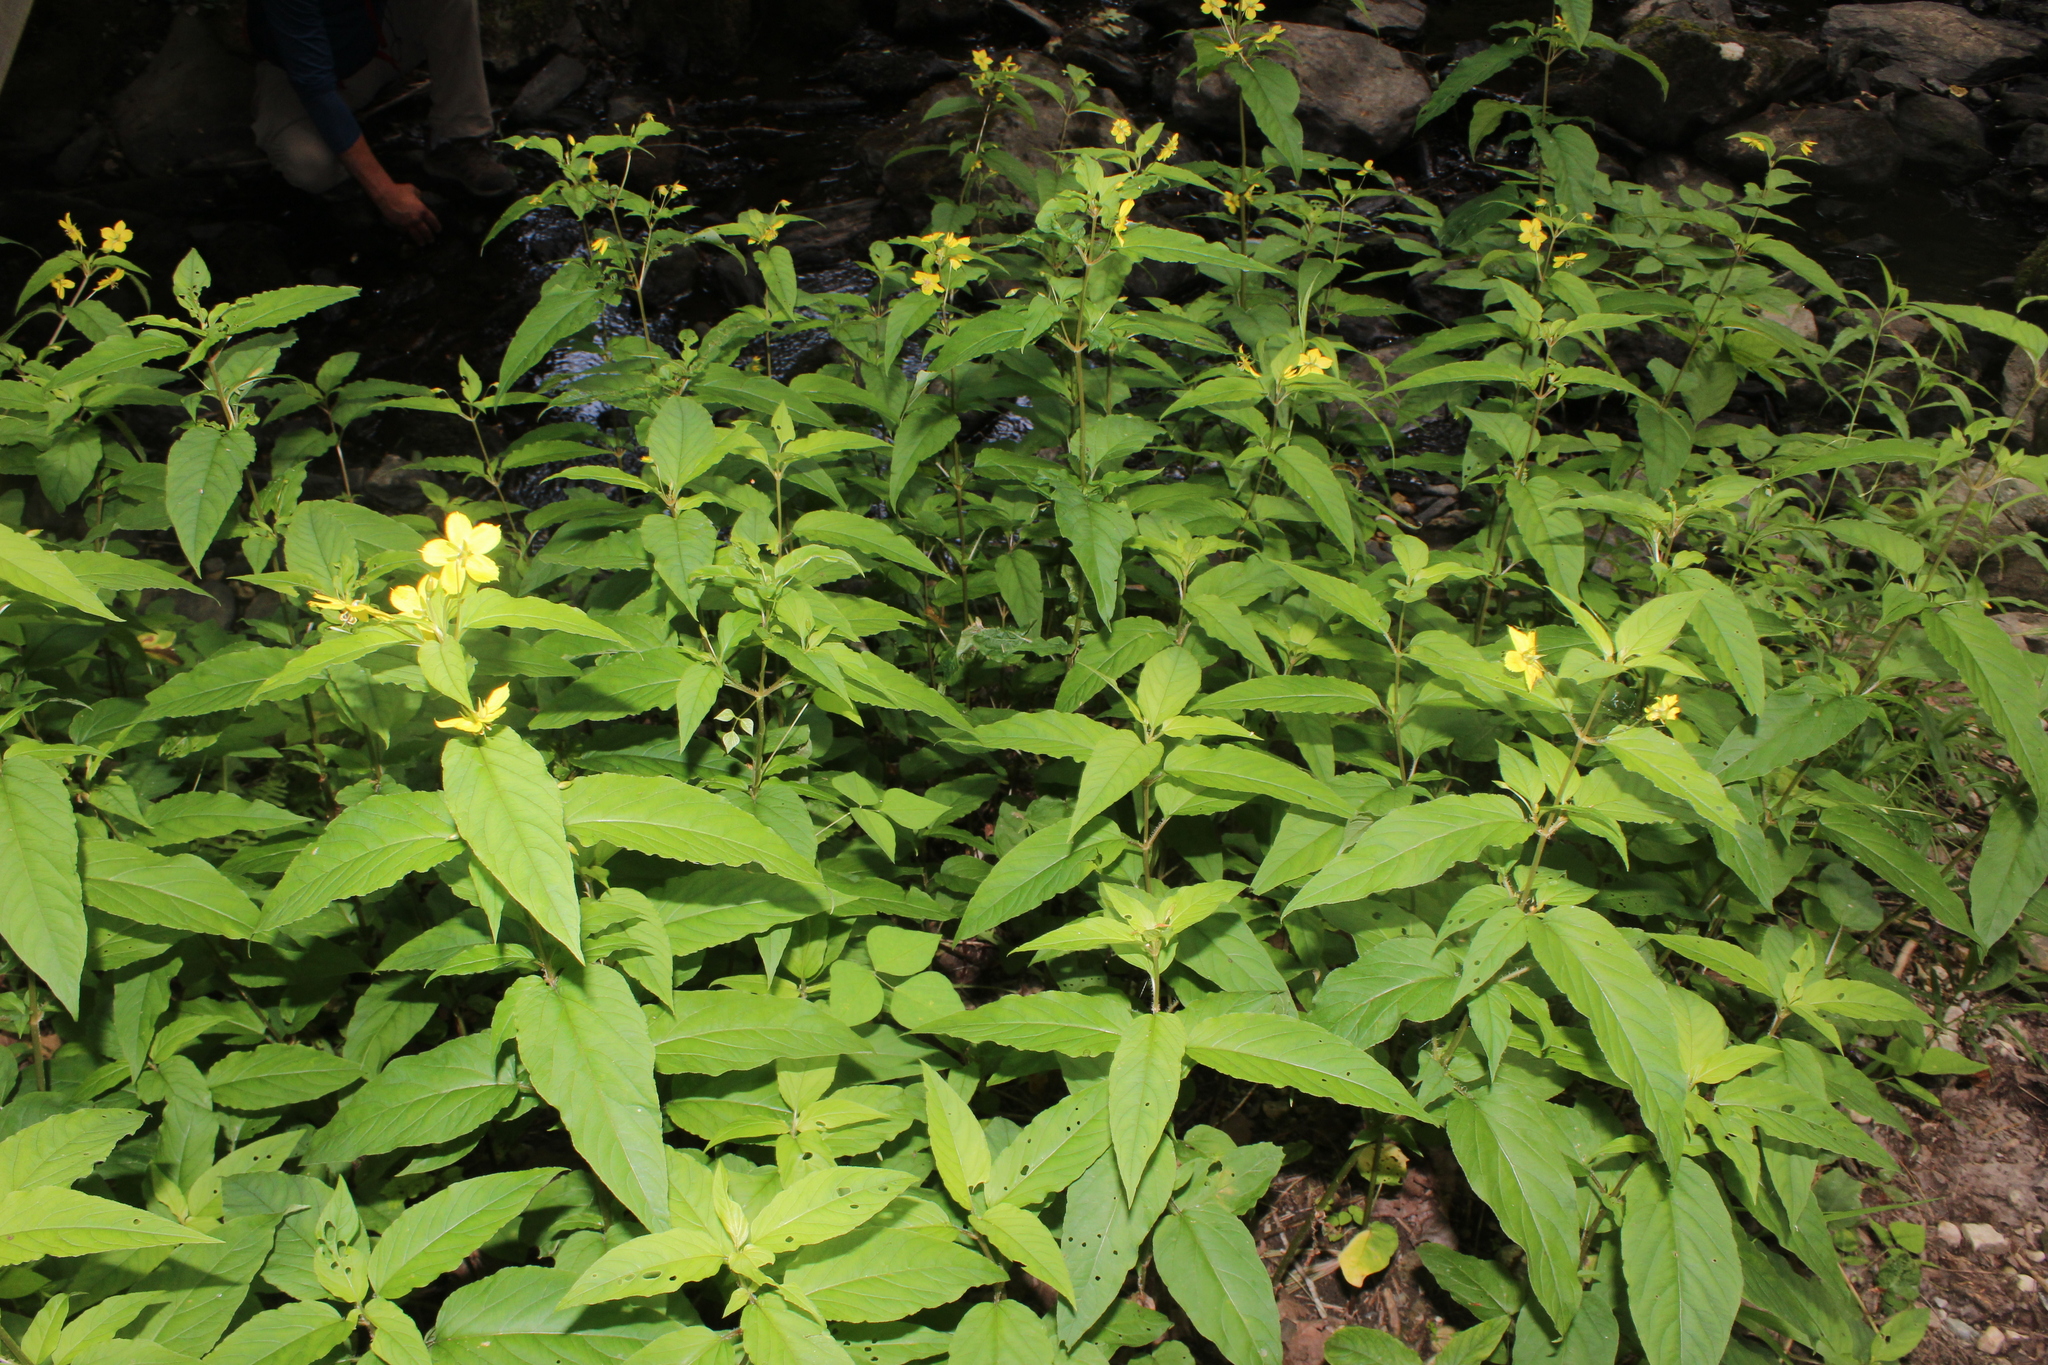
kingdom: Plantae
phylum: Tracheophyta
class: Magnoliopsida
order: Ericales
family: Primulaceae
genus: Lysimachia
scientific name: Lysimachia ciliata
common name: Fringed loosestrife
